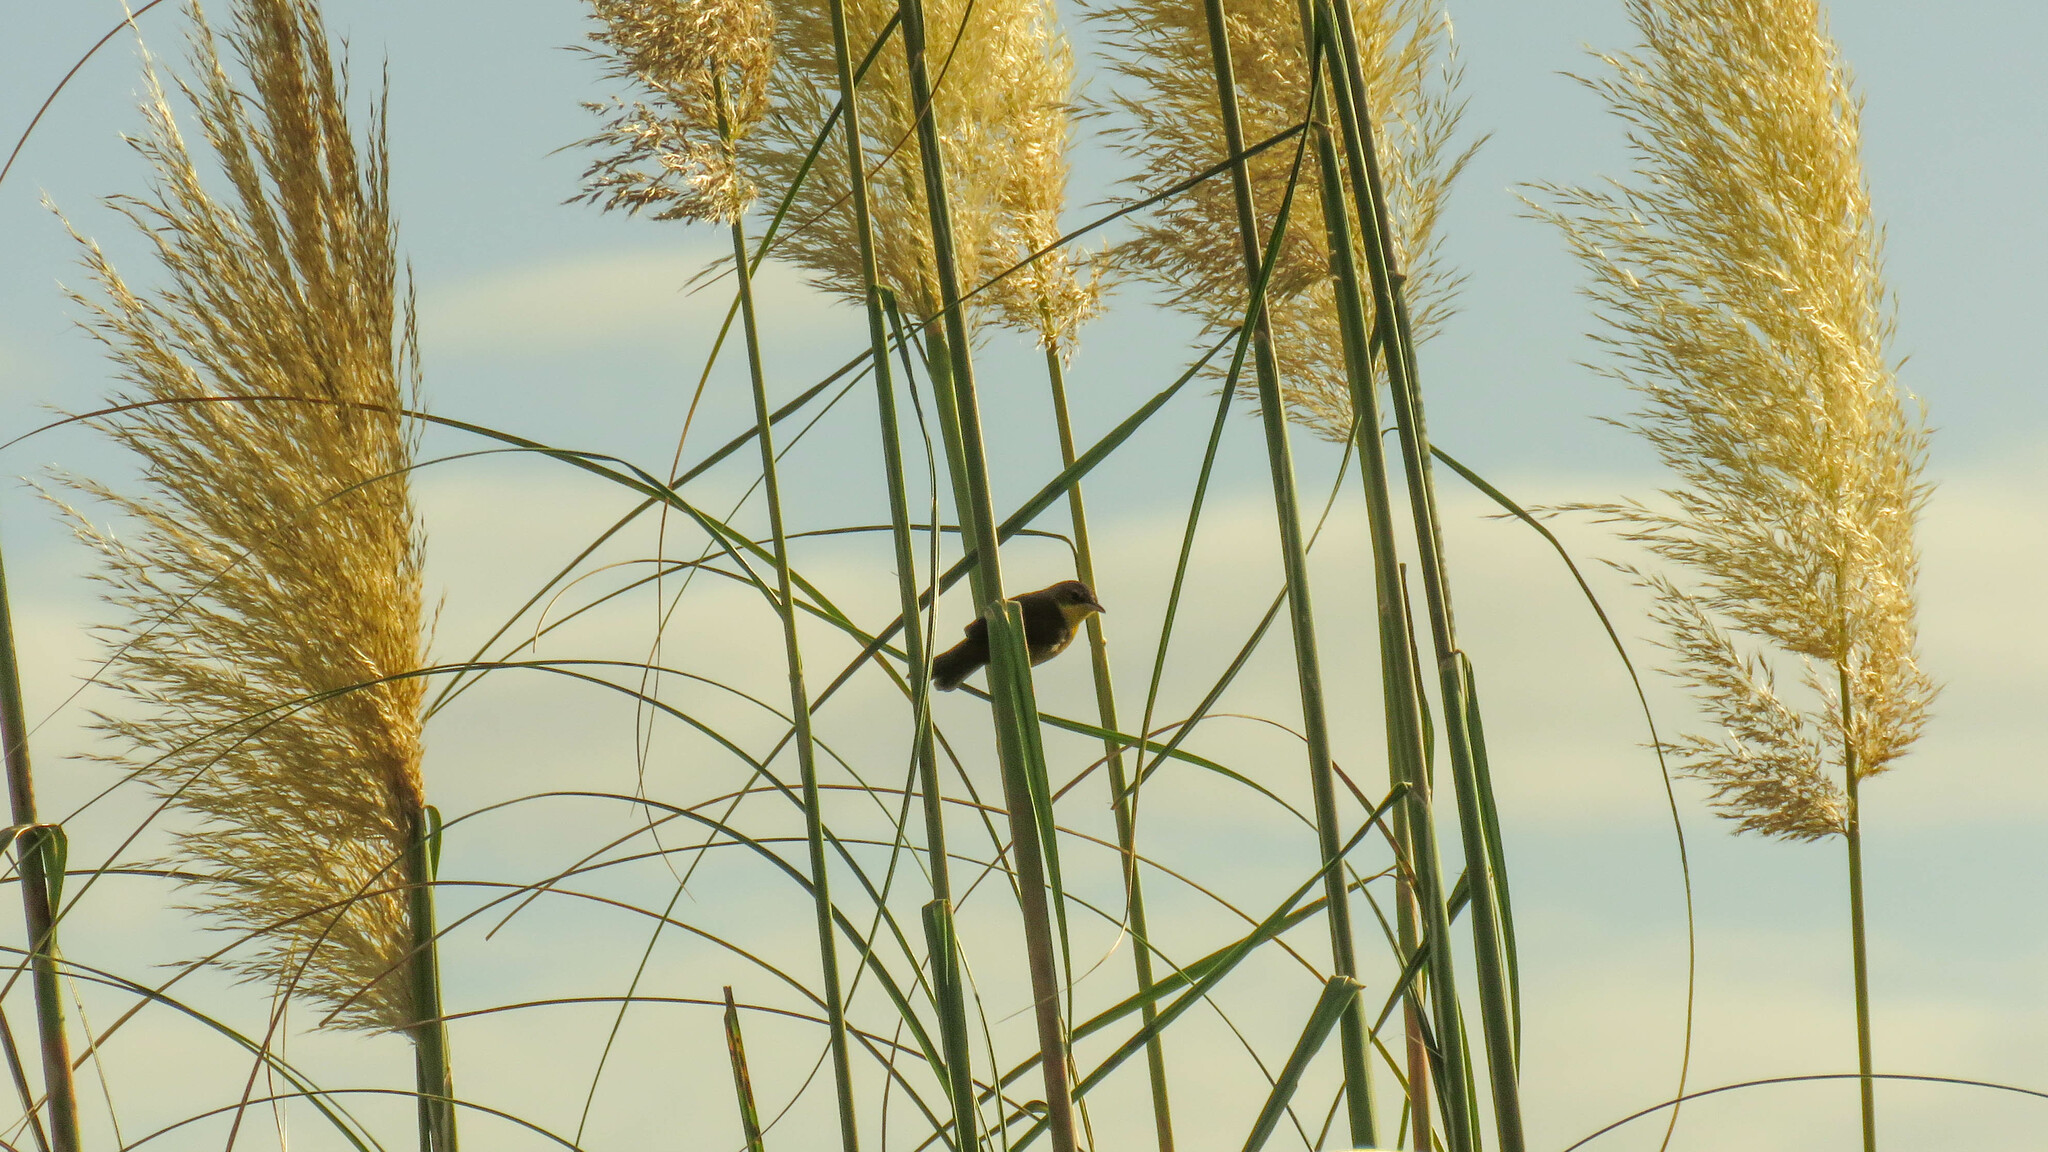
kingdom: Animalia
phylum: Chordata
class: Aves
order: Passeriformes
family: Parulidae
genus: Geothlypis
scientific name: Geothlypis velata
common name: Southern yellowthroat
